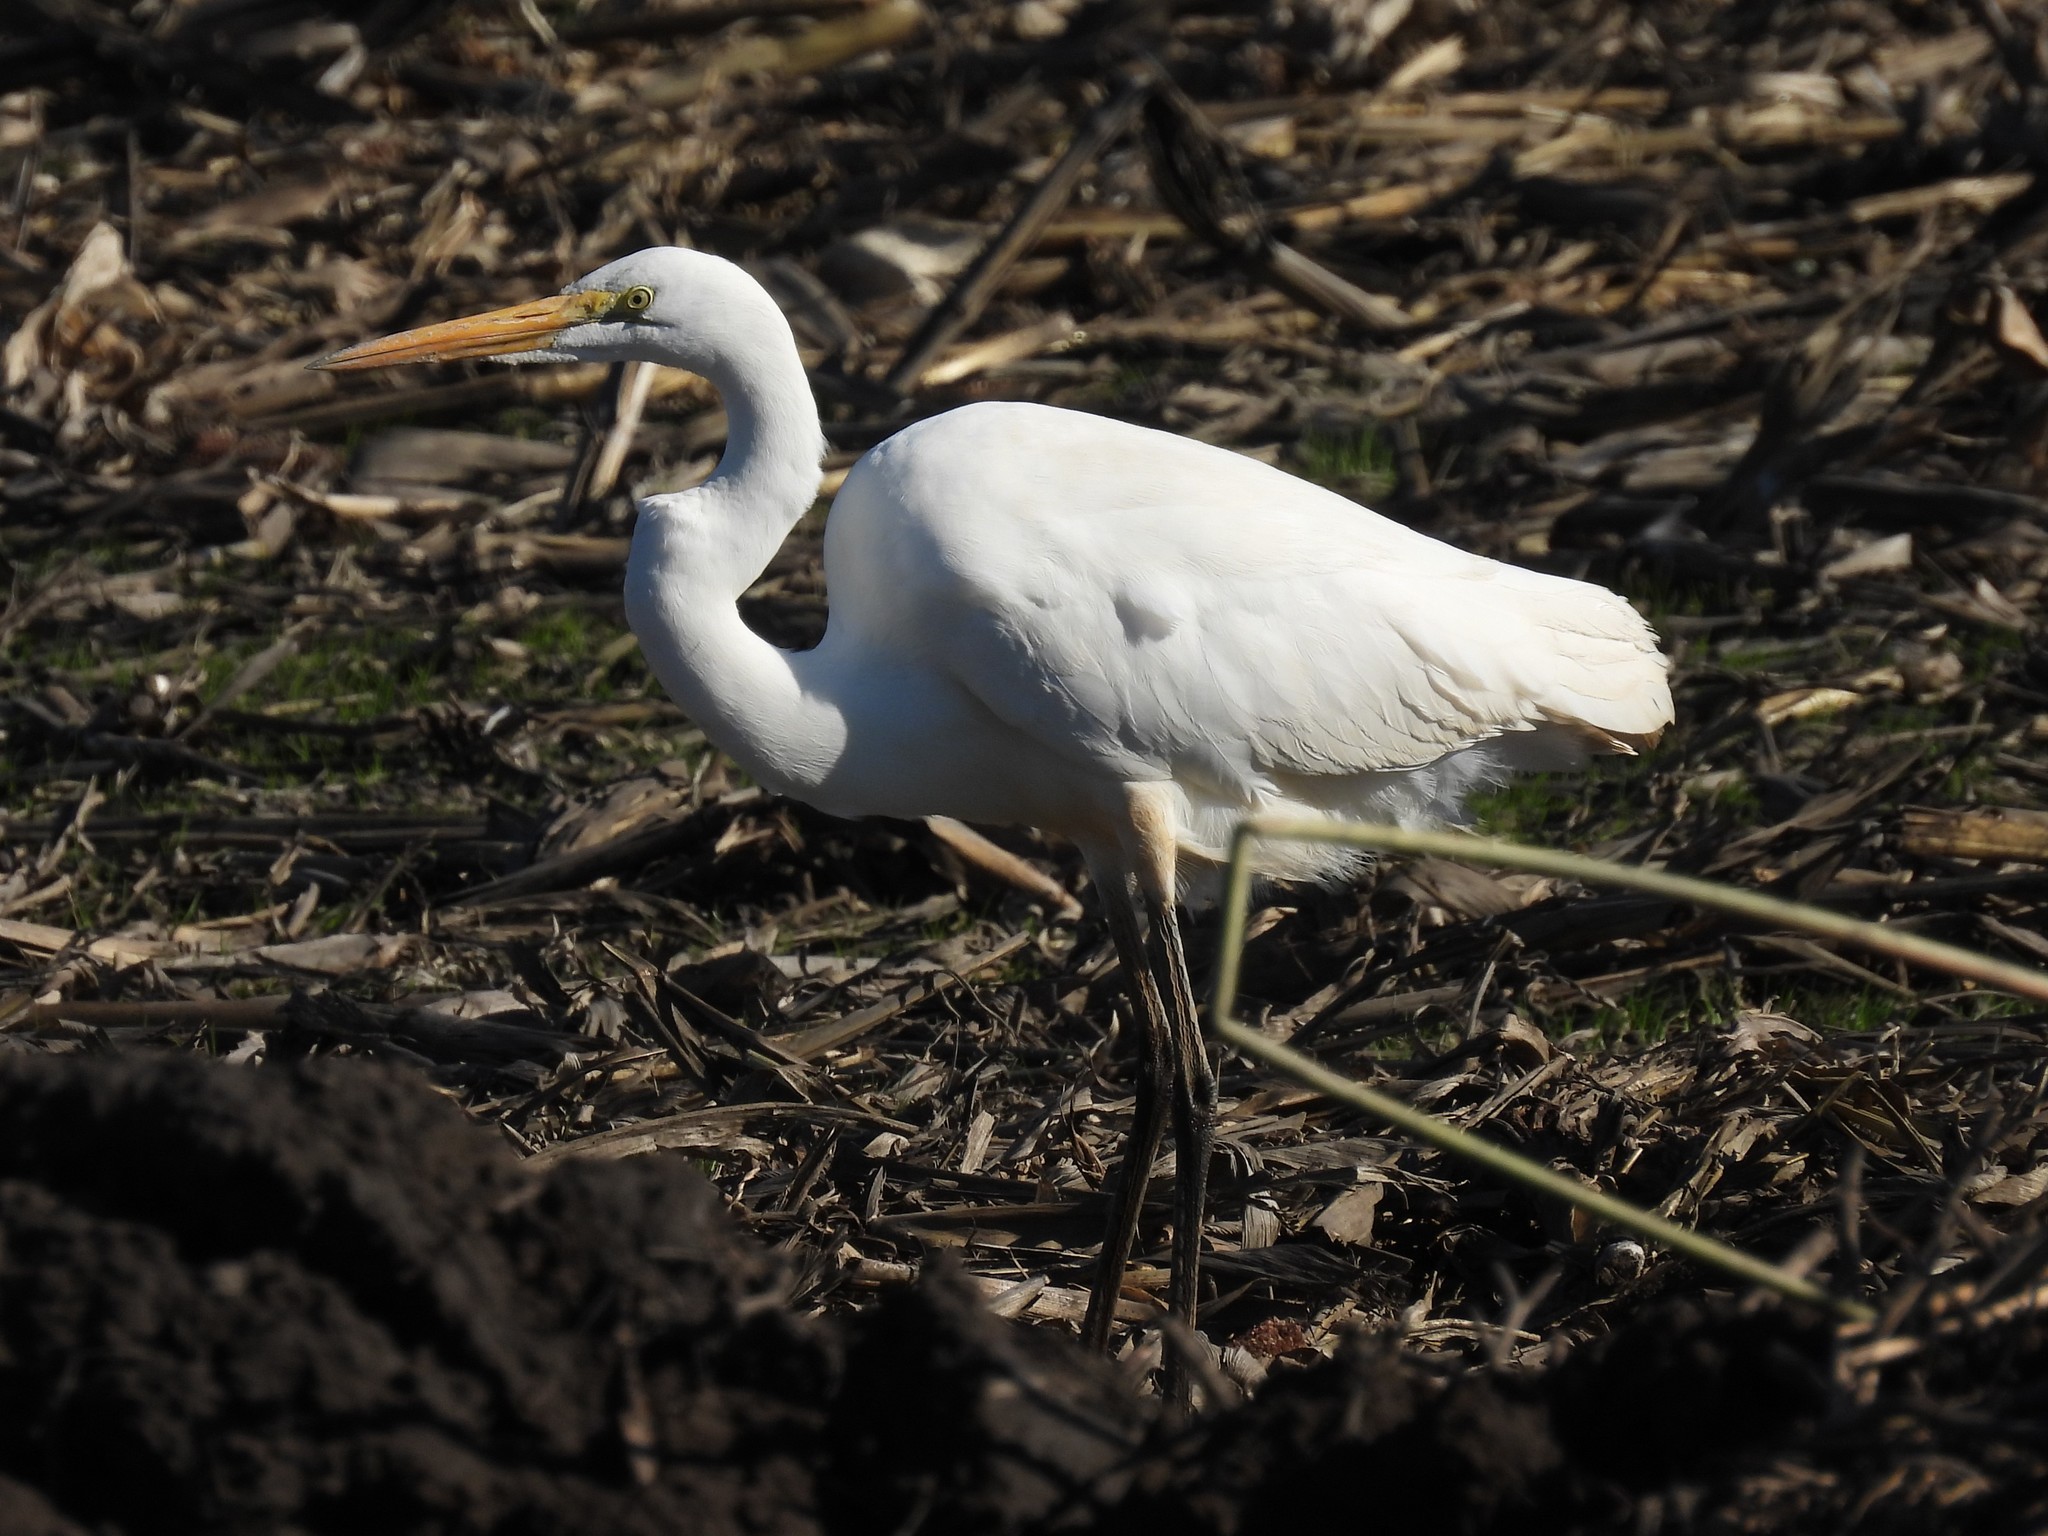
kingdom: Animalia
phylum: Chordata
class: Aves
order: Pelecaniformes
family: Ardeidae
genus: Ardea
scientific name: Ardea alba
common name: Great egret
